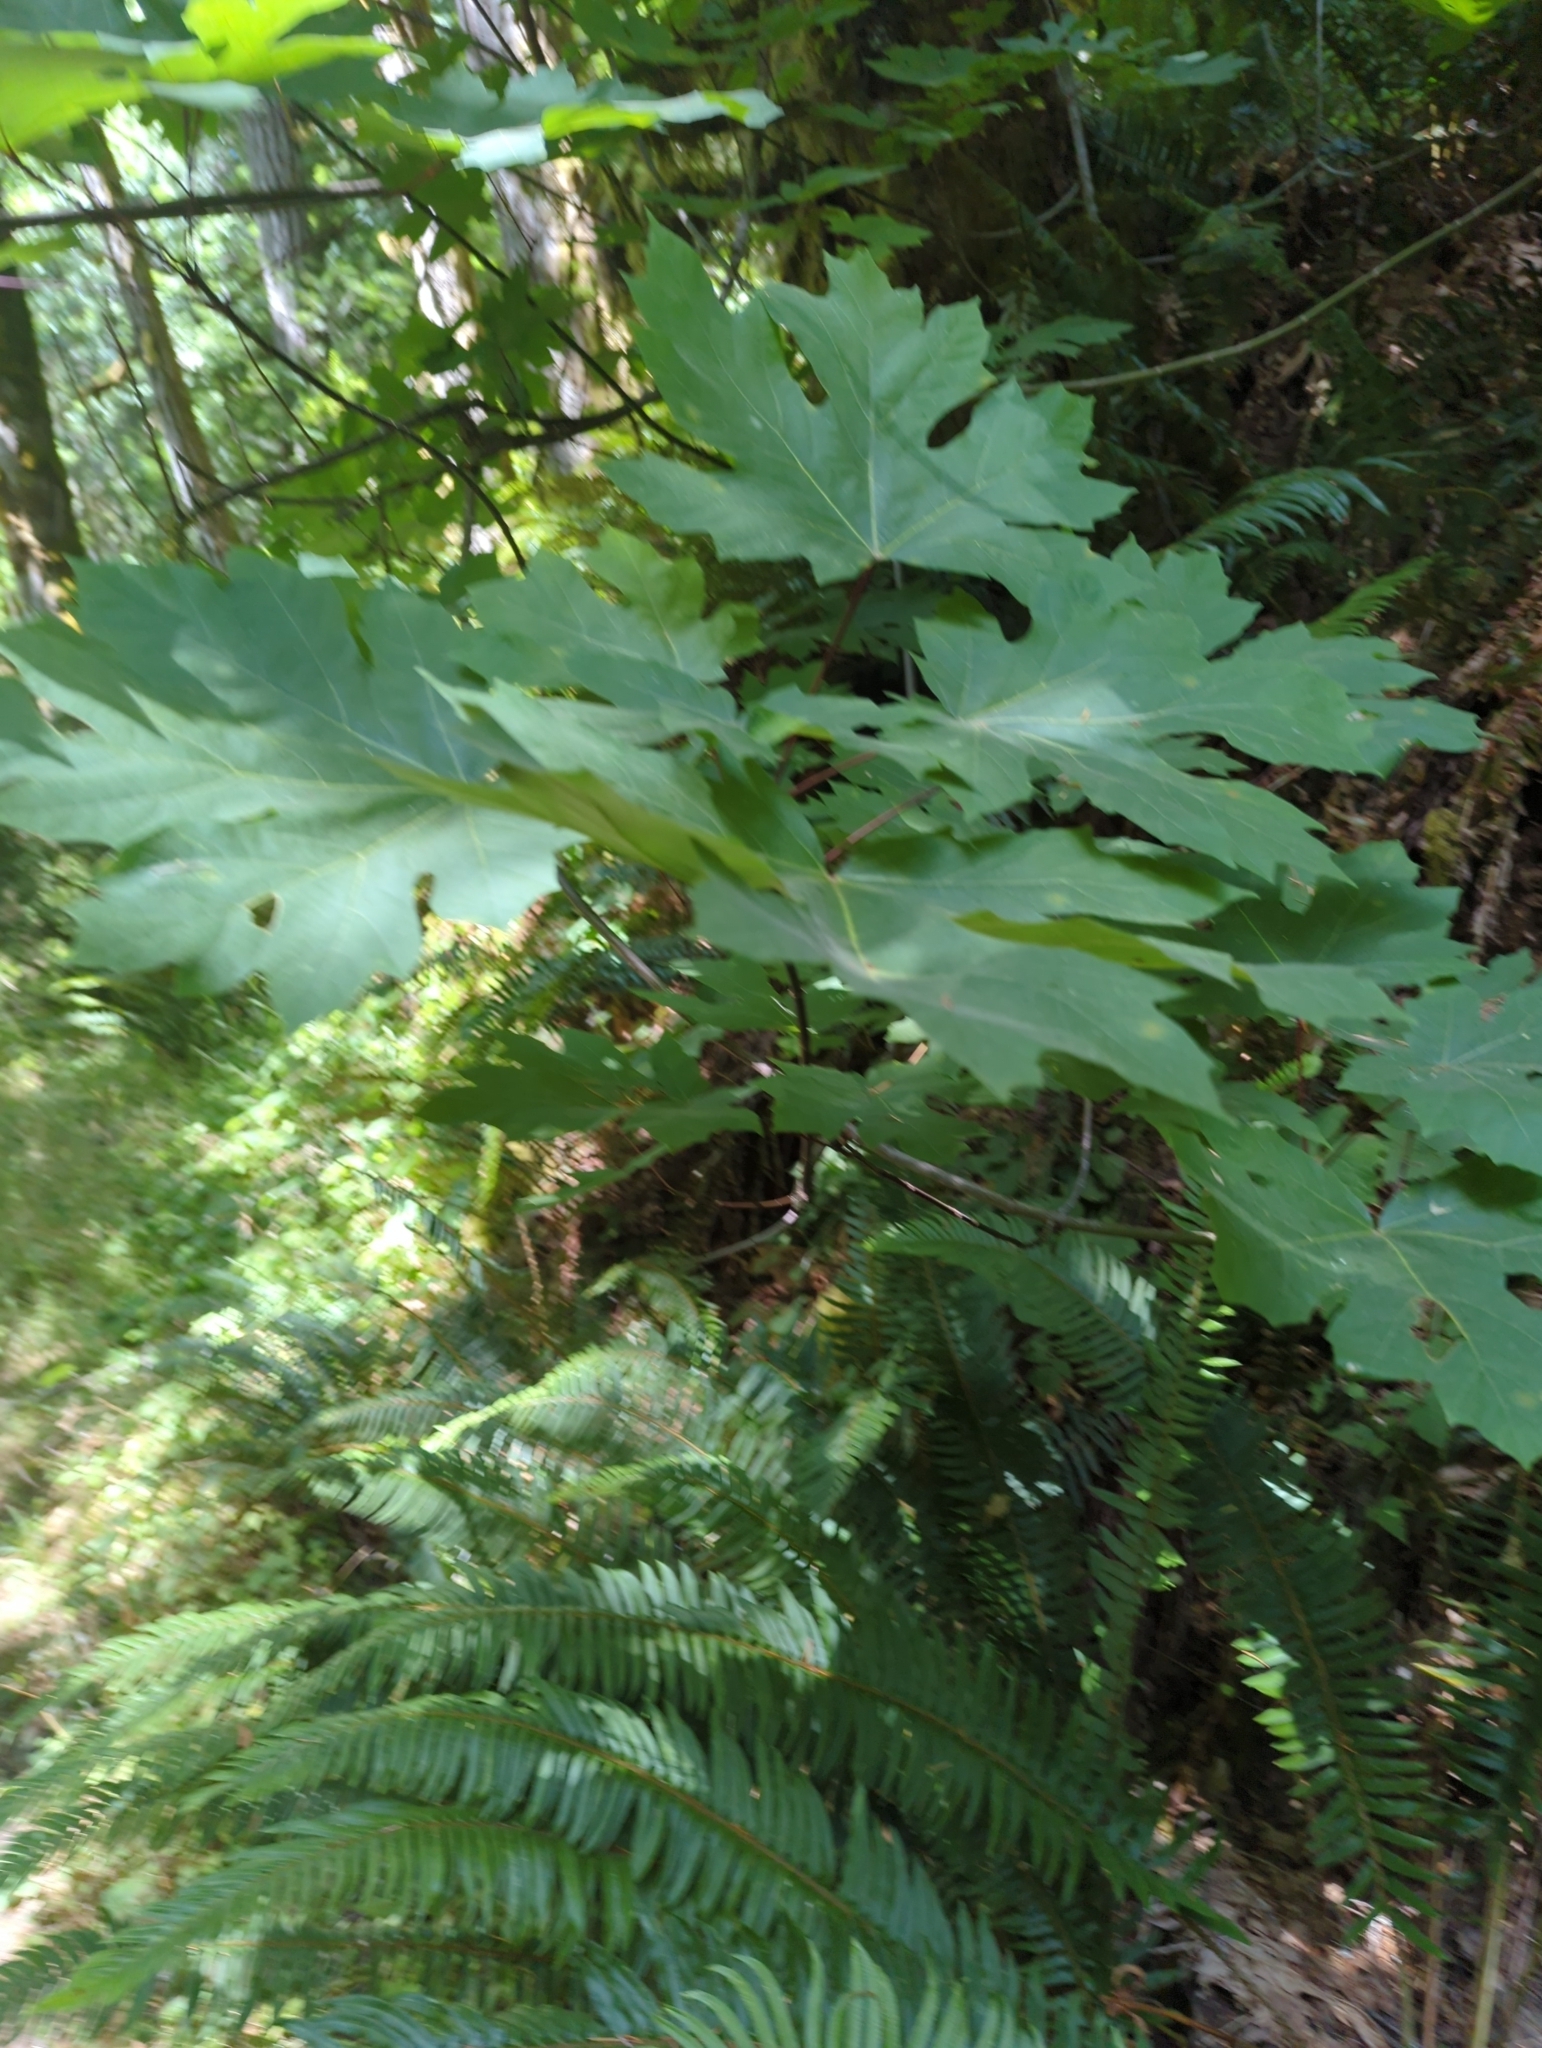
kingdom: Plantae
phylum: Tracheophyta
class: Magnoliopsida
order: Sapindales
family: Sapindaceae
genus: Acer
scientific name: Acer macrophyllum
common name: Oregon maple
